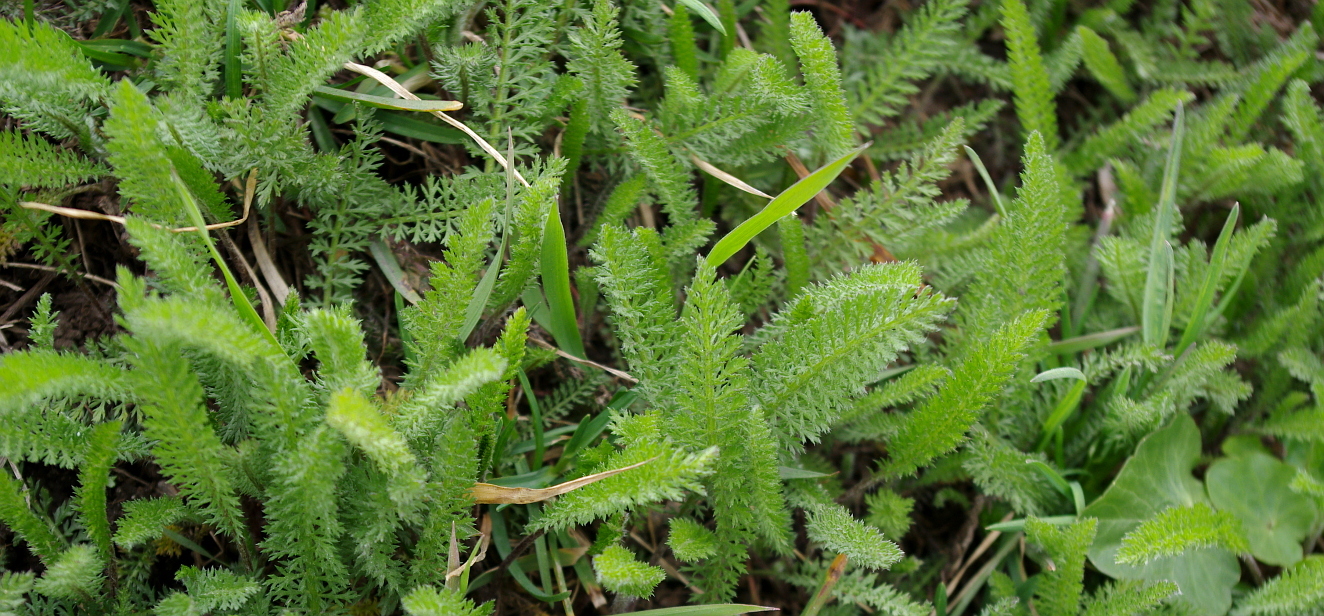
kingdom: Plantae
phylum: Tracheophyta
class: Magnoliopsida
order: Asterales
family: Asteraceae
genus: Achillea
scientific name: Achillea millefolium
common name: Yarrow
